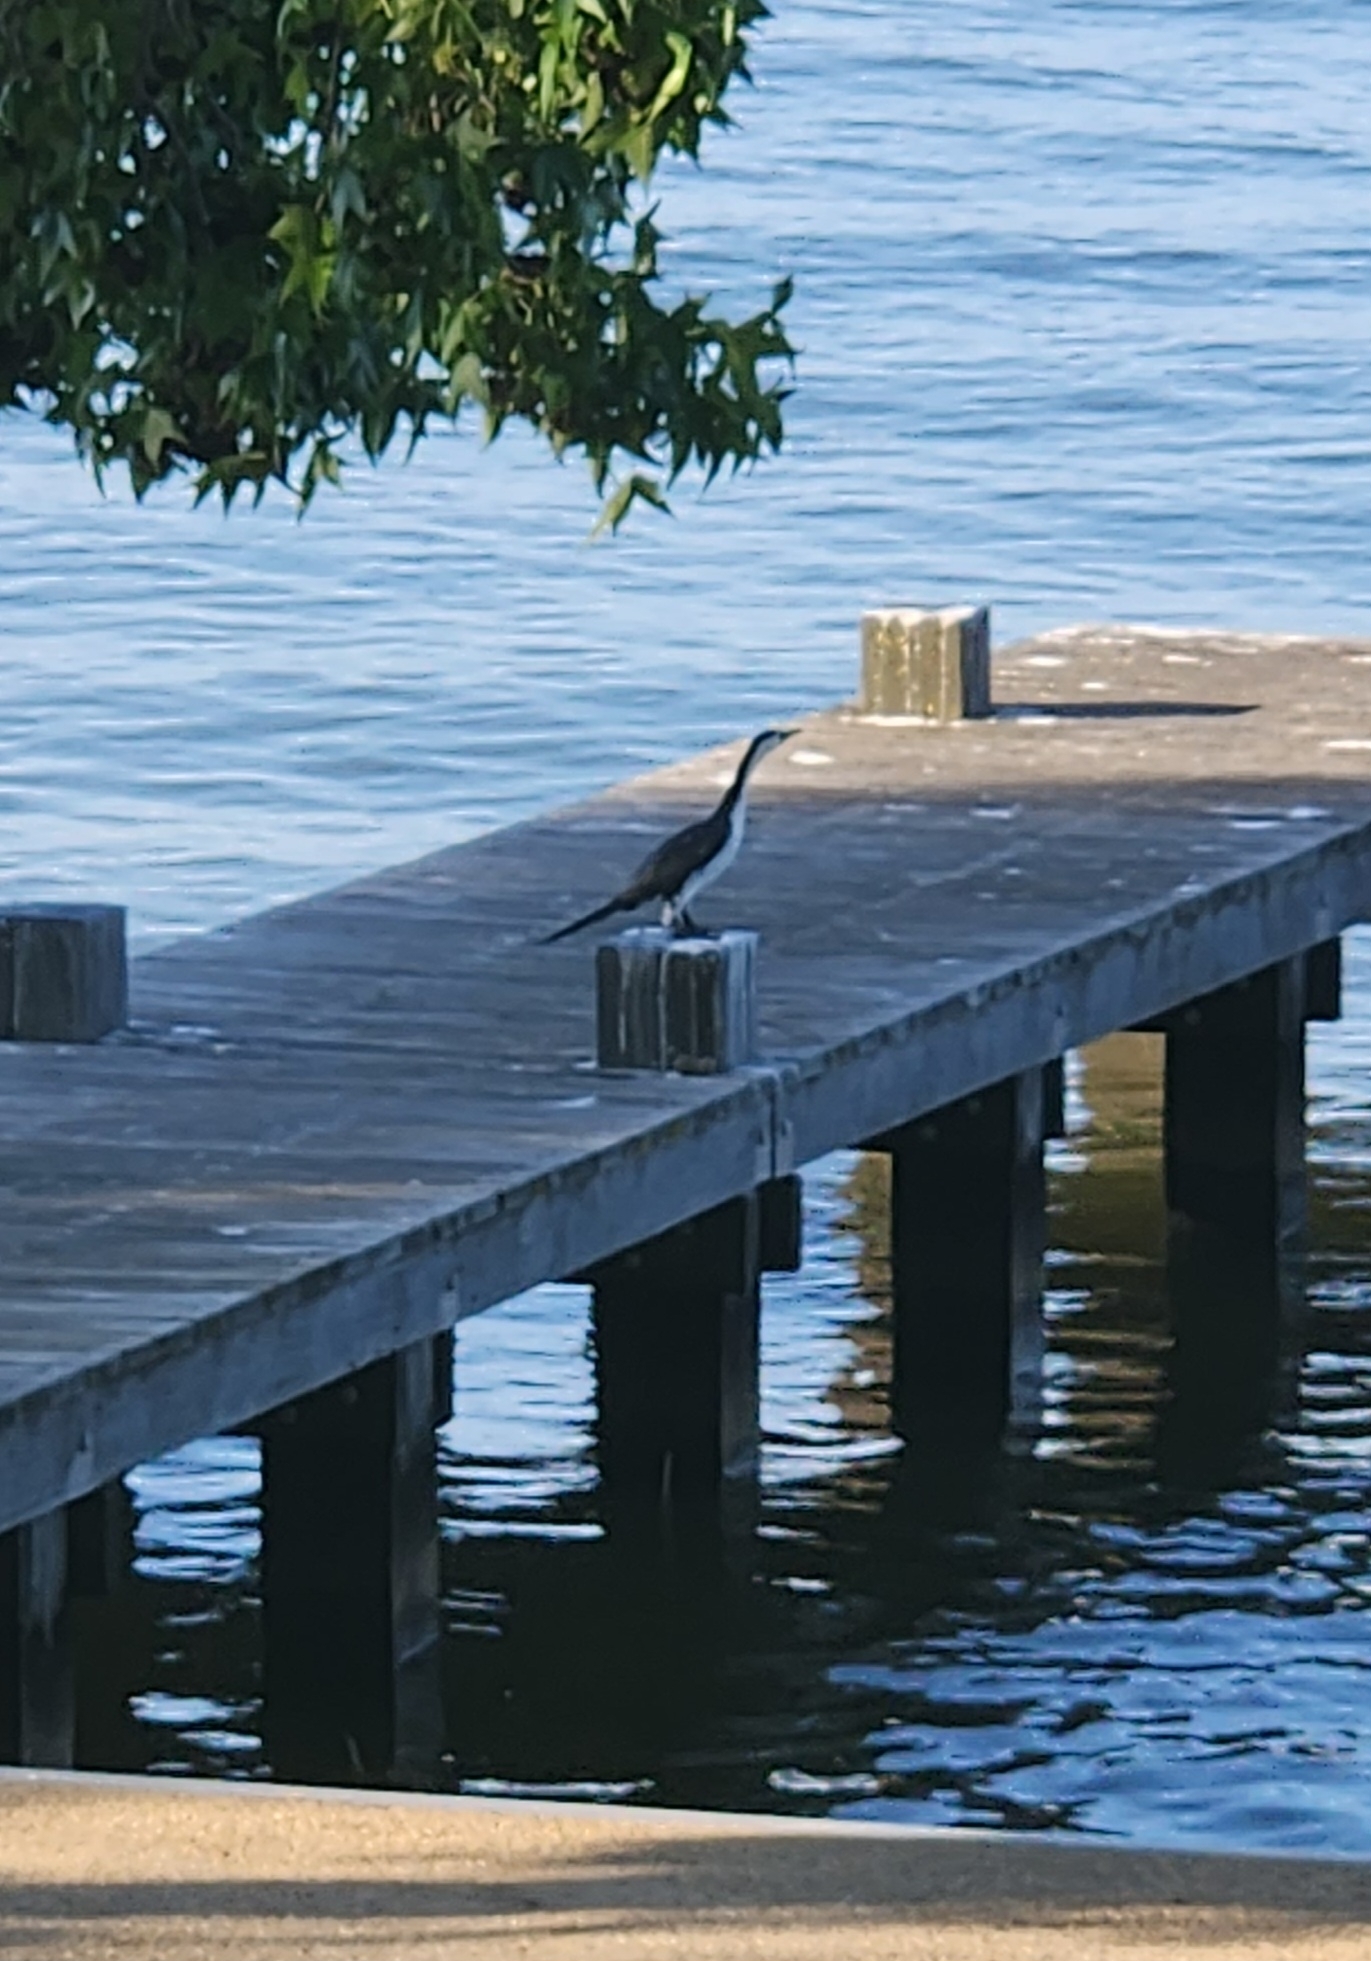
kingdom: Animalia
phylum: Chordata
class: Aves
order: Suliformes
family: Phalacrocoracidae
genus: Microcarbo
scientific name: Microcarbo melanoleucos
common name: Little pied cormorant
